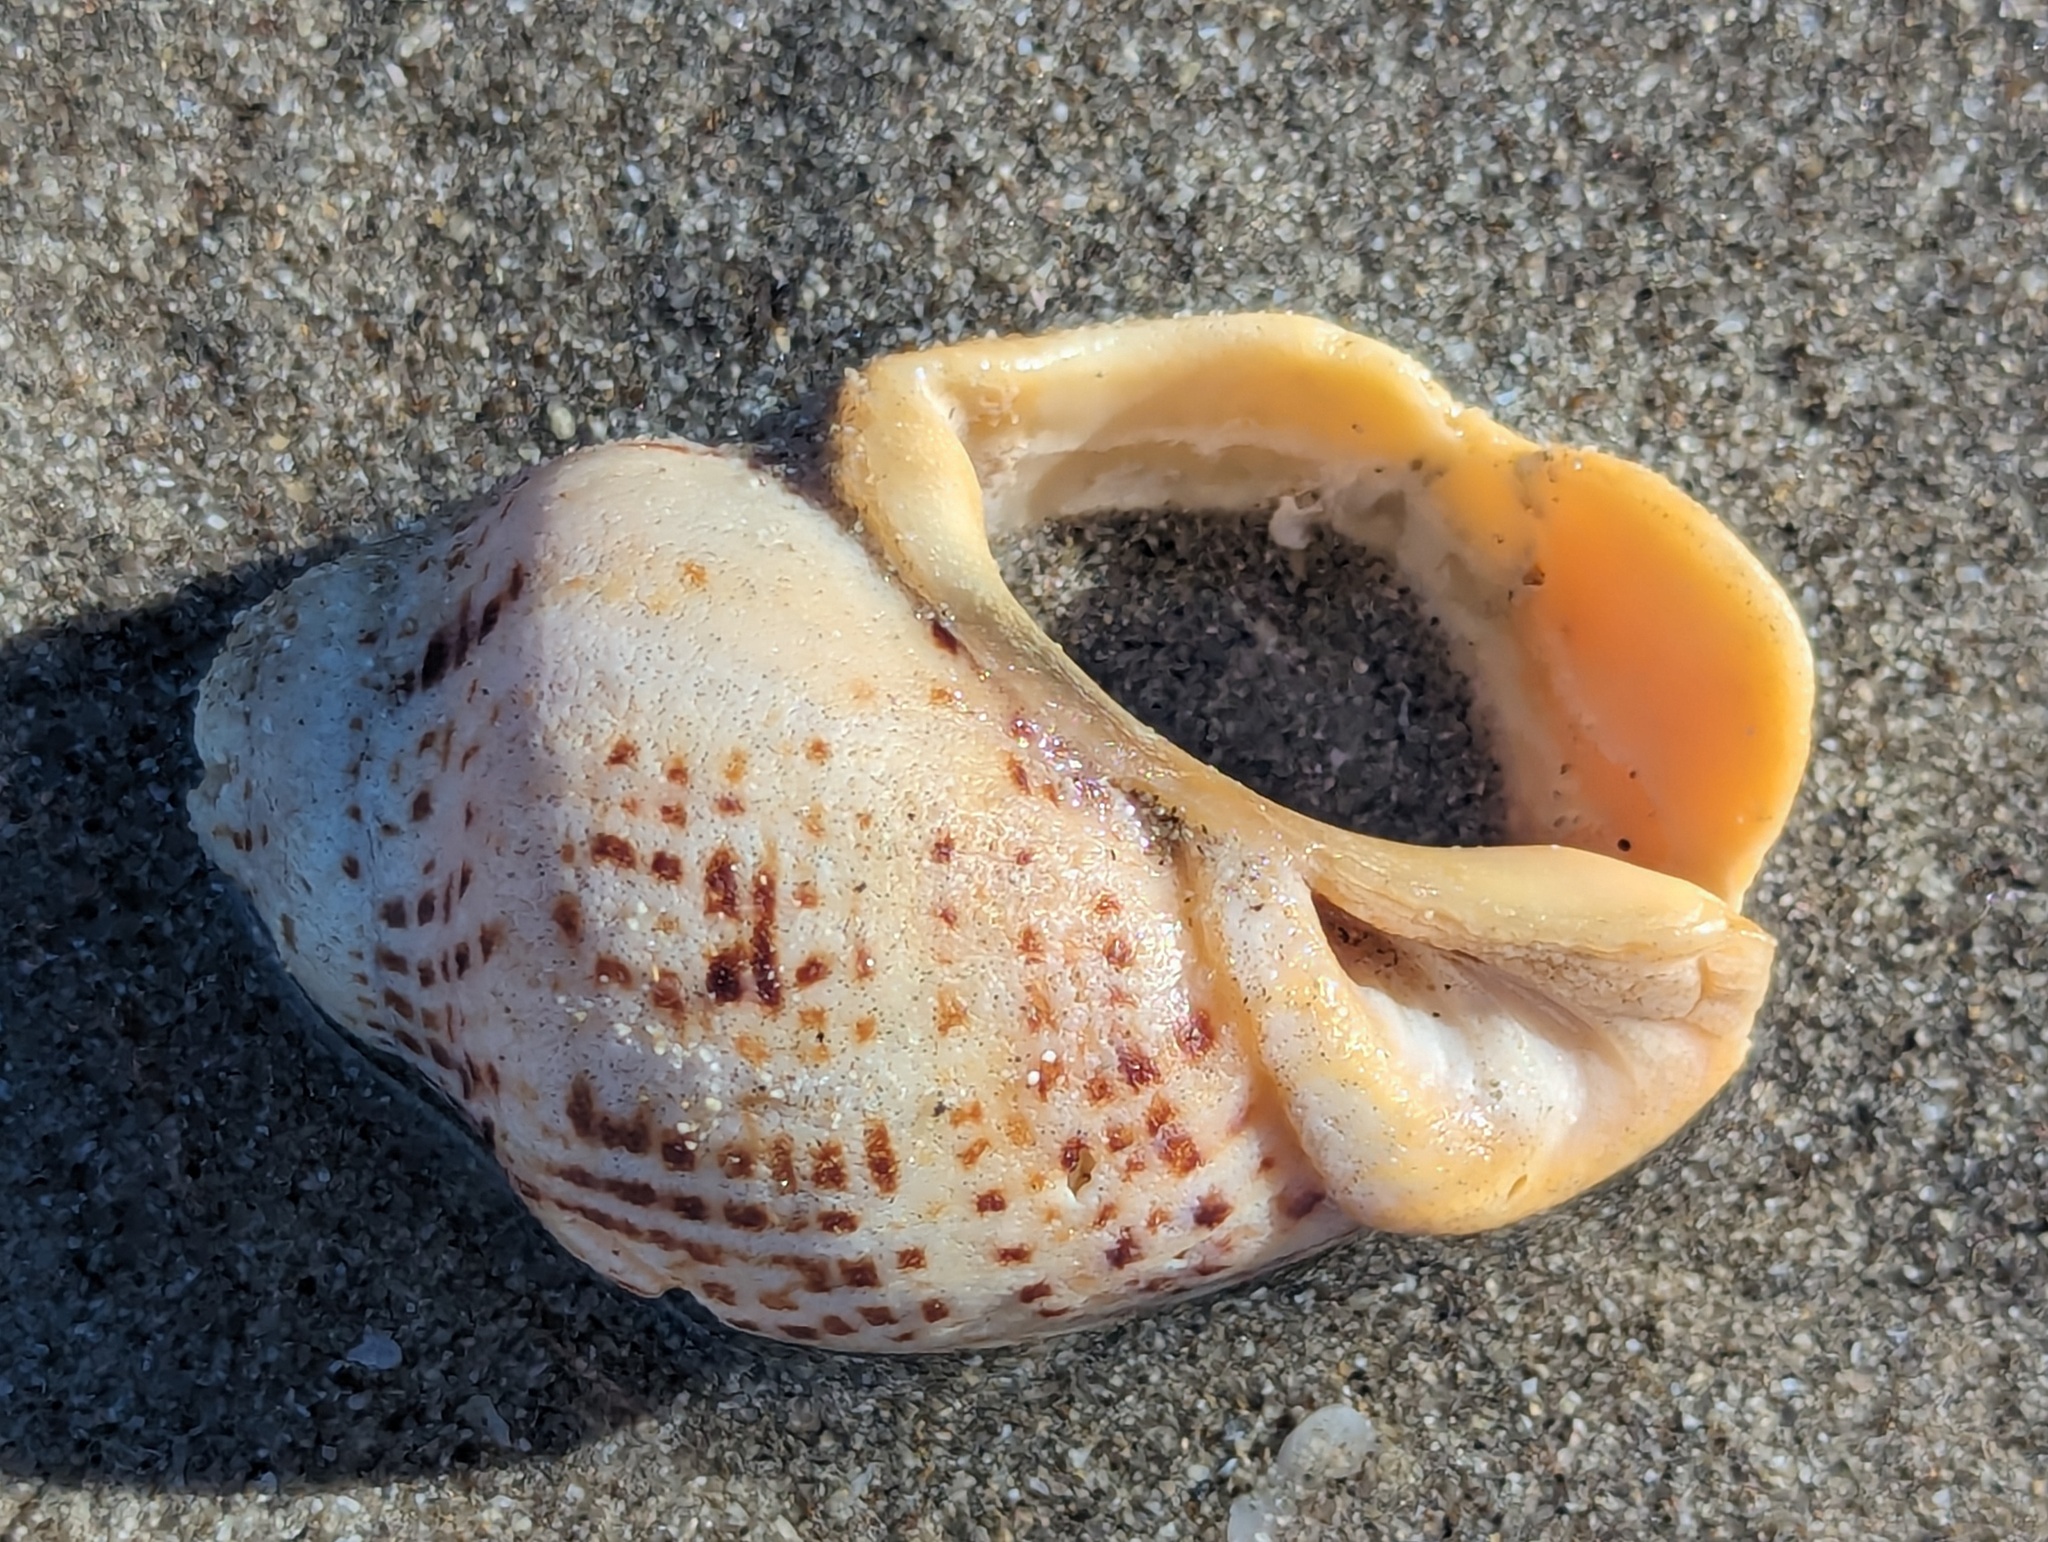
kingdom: Animalia
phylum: Mollusca
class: Gastropoda
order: Neogastropoda
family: Cominellidae
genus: Cominella
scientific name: Cominella adspersa
